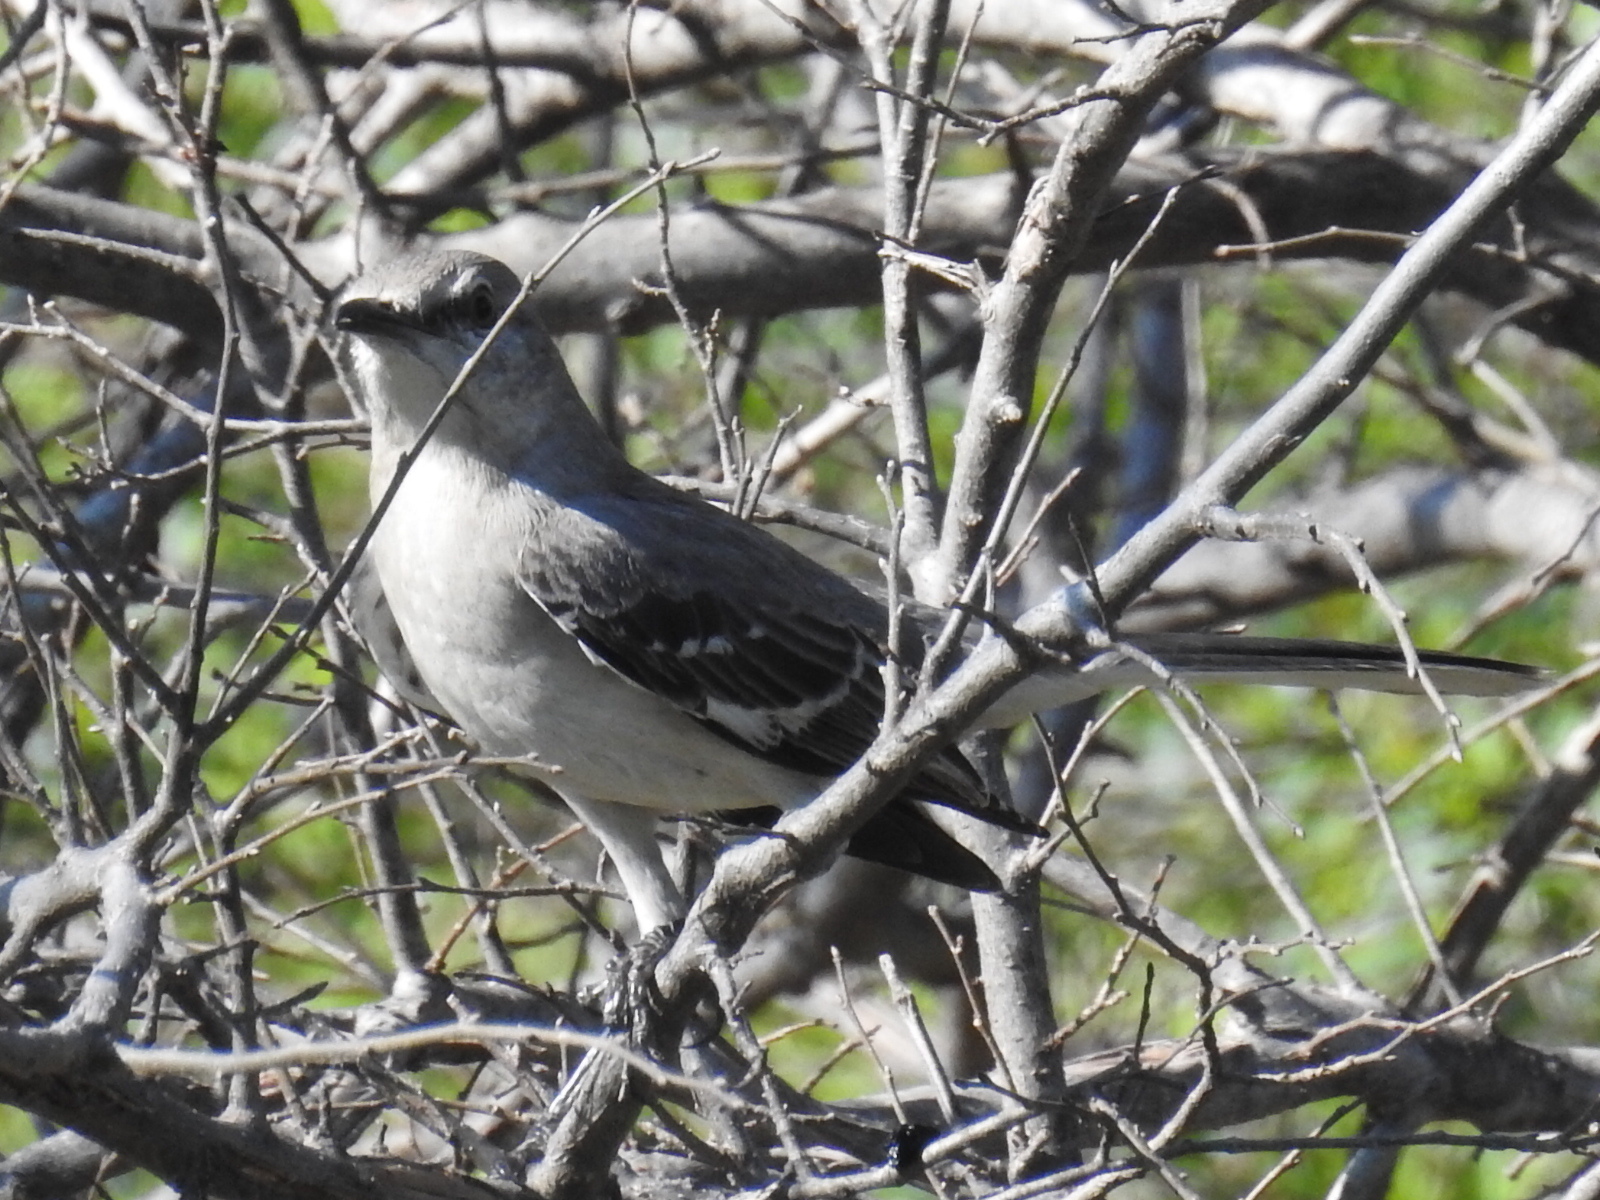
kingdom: Animalia
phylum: Chordata
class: Aves
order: Passeriformes
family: Mimidae
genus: Mimus
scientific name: Mimus polyglottos
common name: Northern mockingbird
